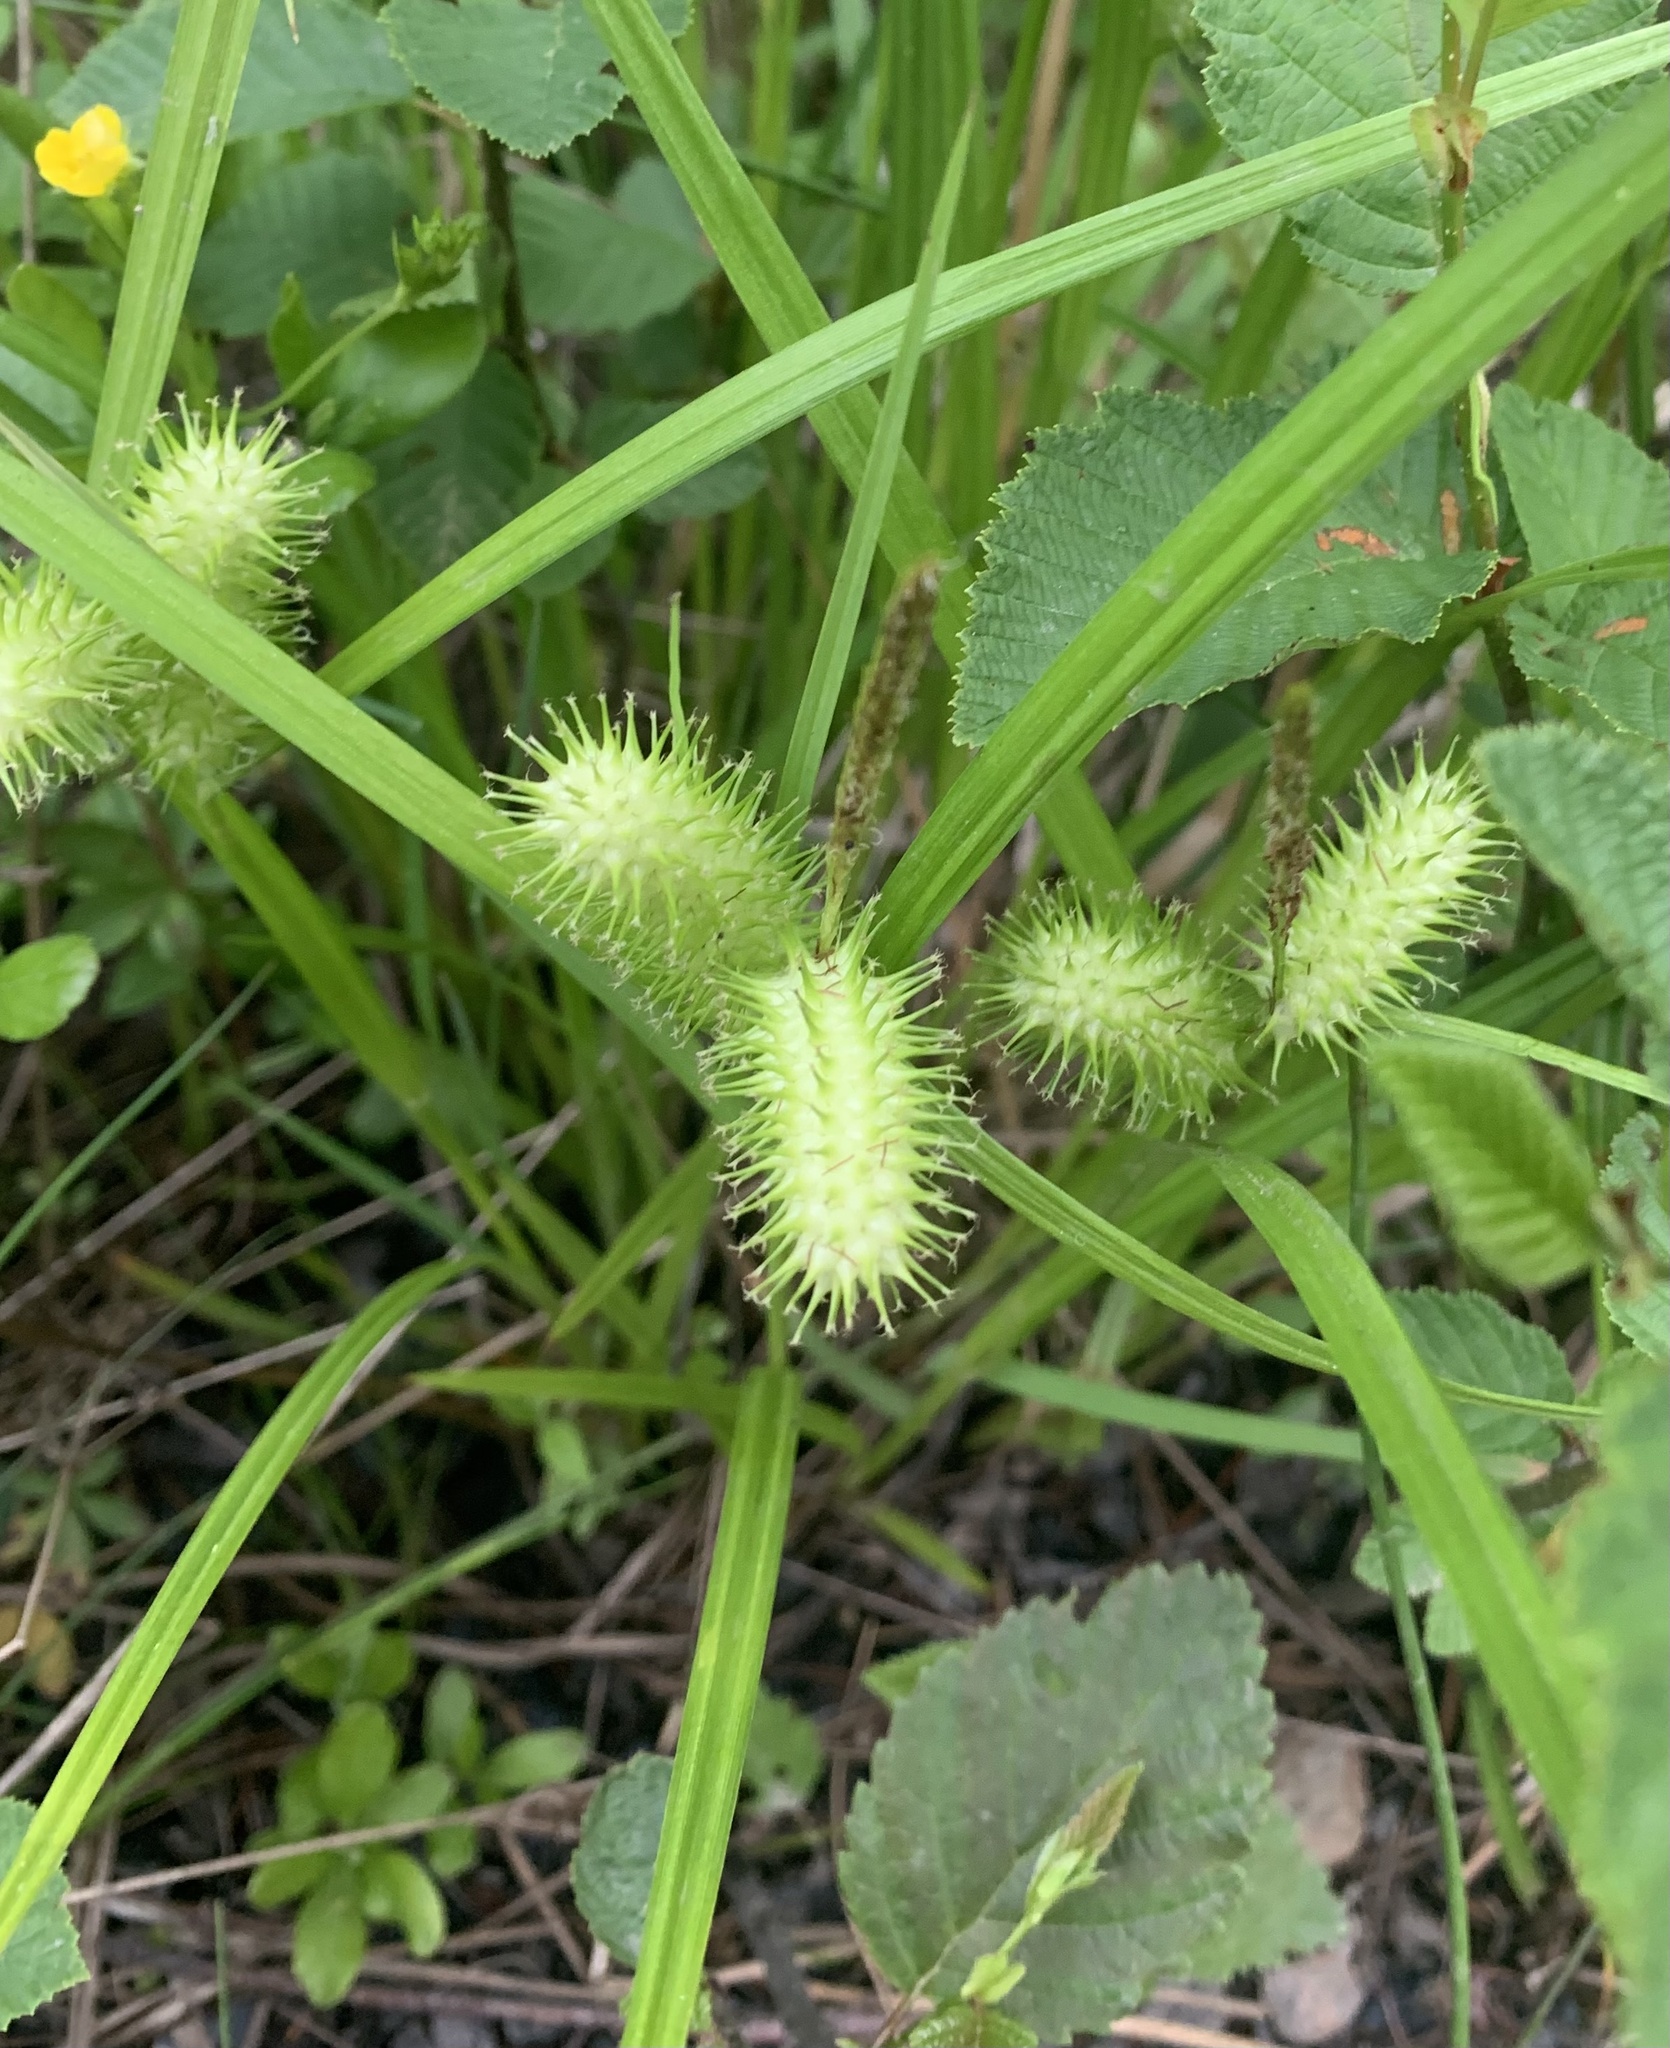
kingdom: Plantae
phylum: Tracheophyta
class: Liliopsida
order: Poales
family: Cyperaceae
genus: Carex
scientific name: Carex lurida
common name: Sallow sedge
